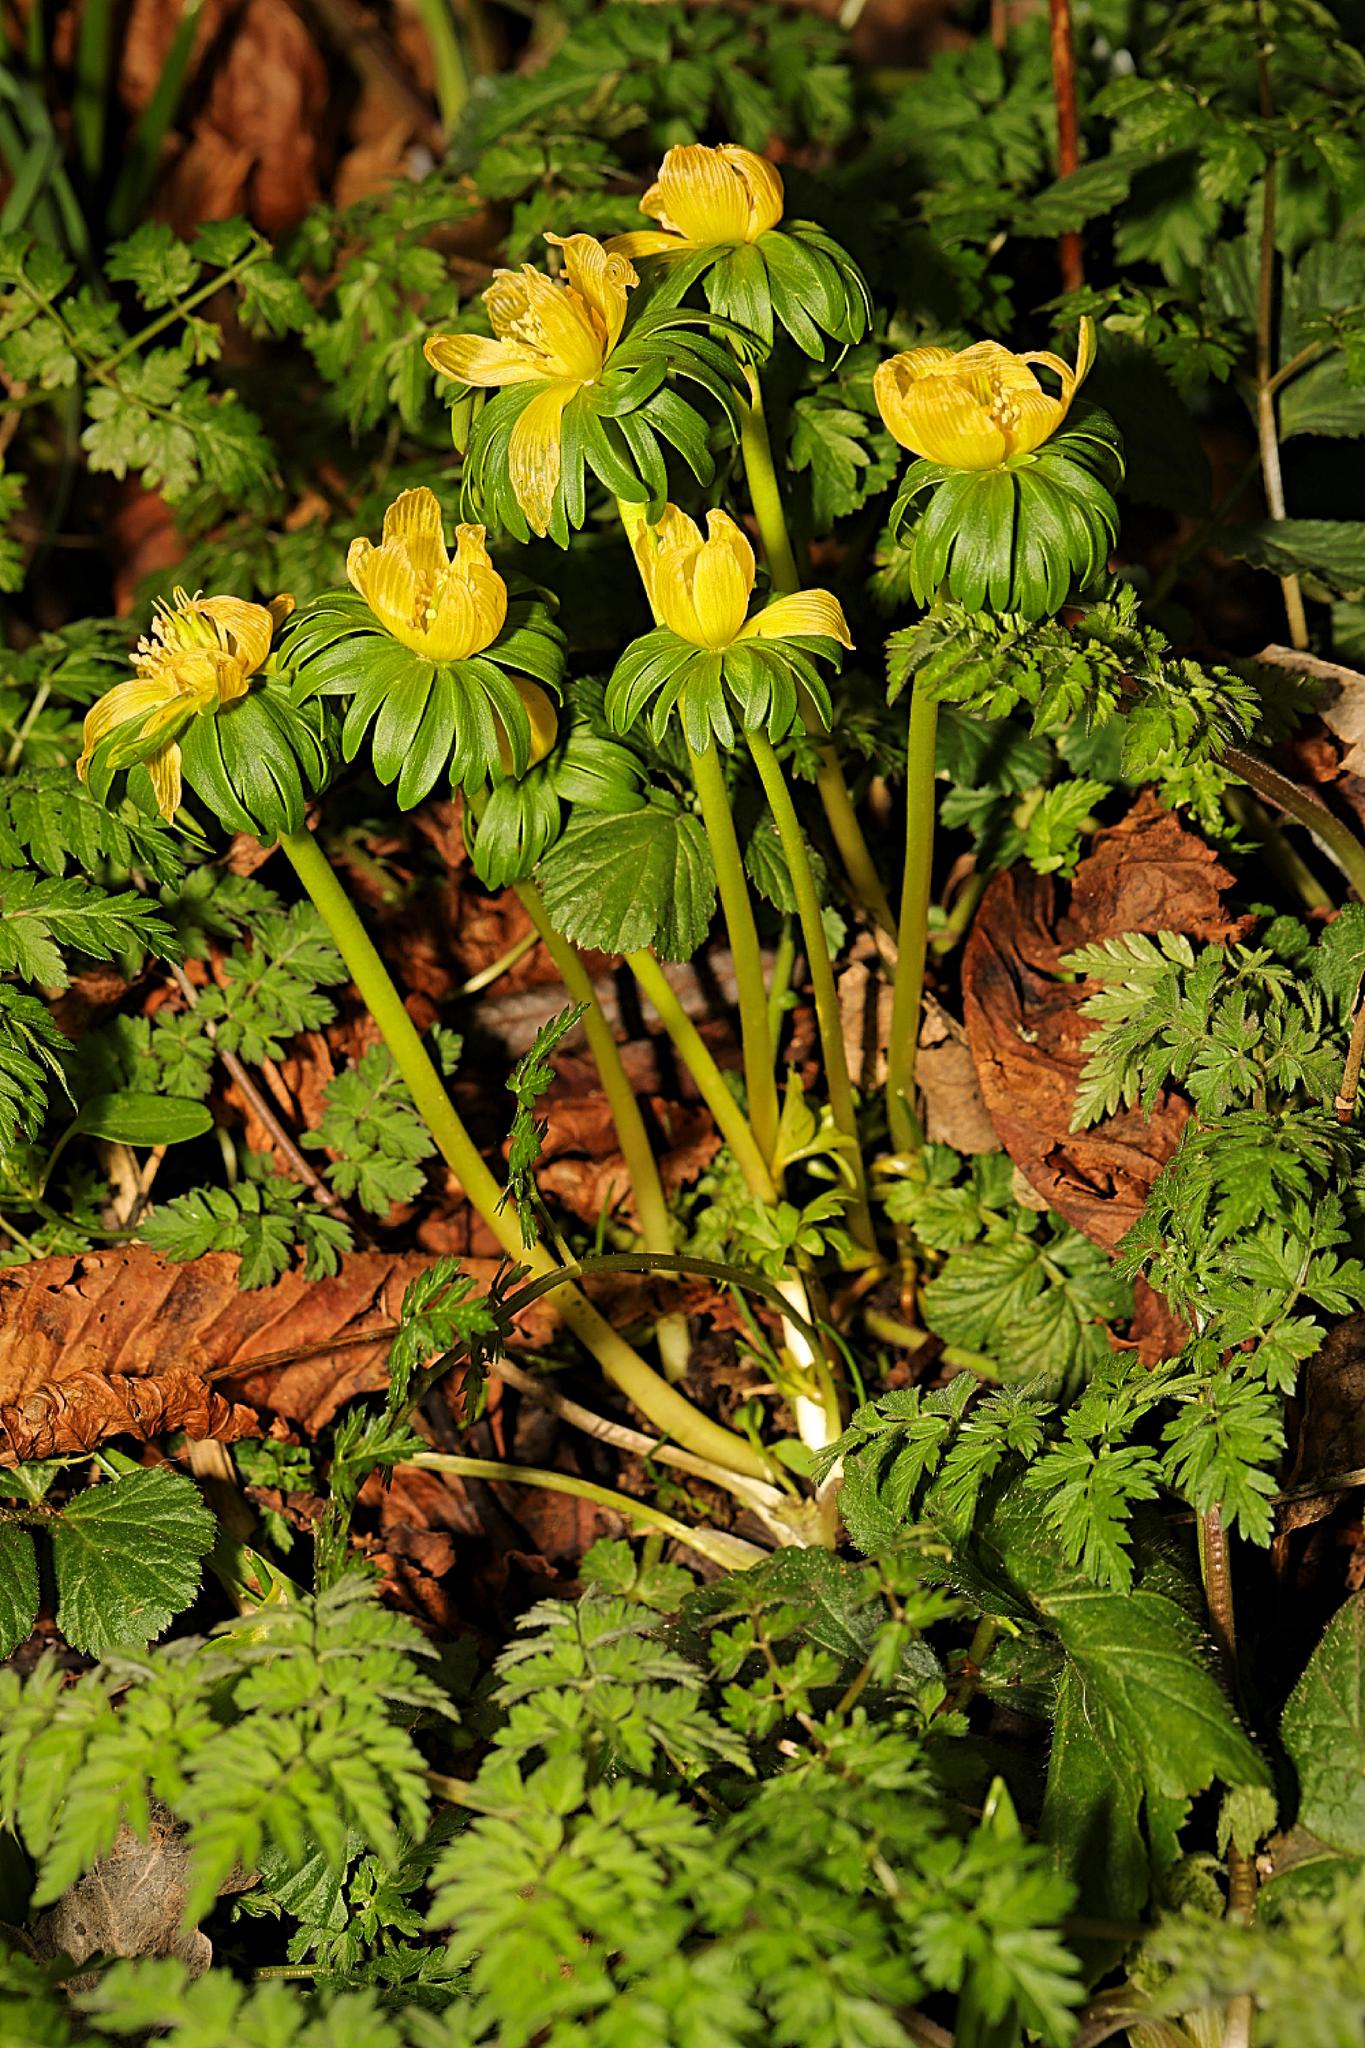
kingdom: Plantae
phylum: Tracheophyta
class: Magnoliopsida
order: Ranunculales
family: Ranunculaceae
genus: Eranthis
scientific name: Eranthis hyemalis
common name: Winter aconite
